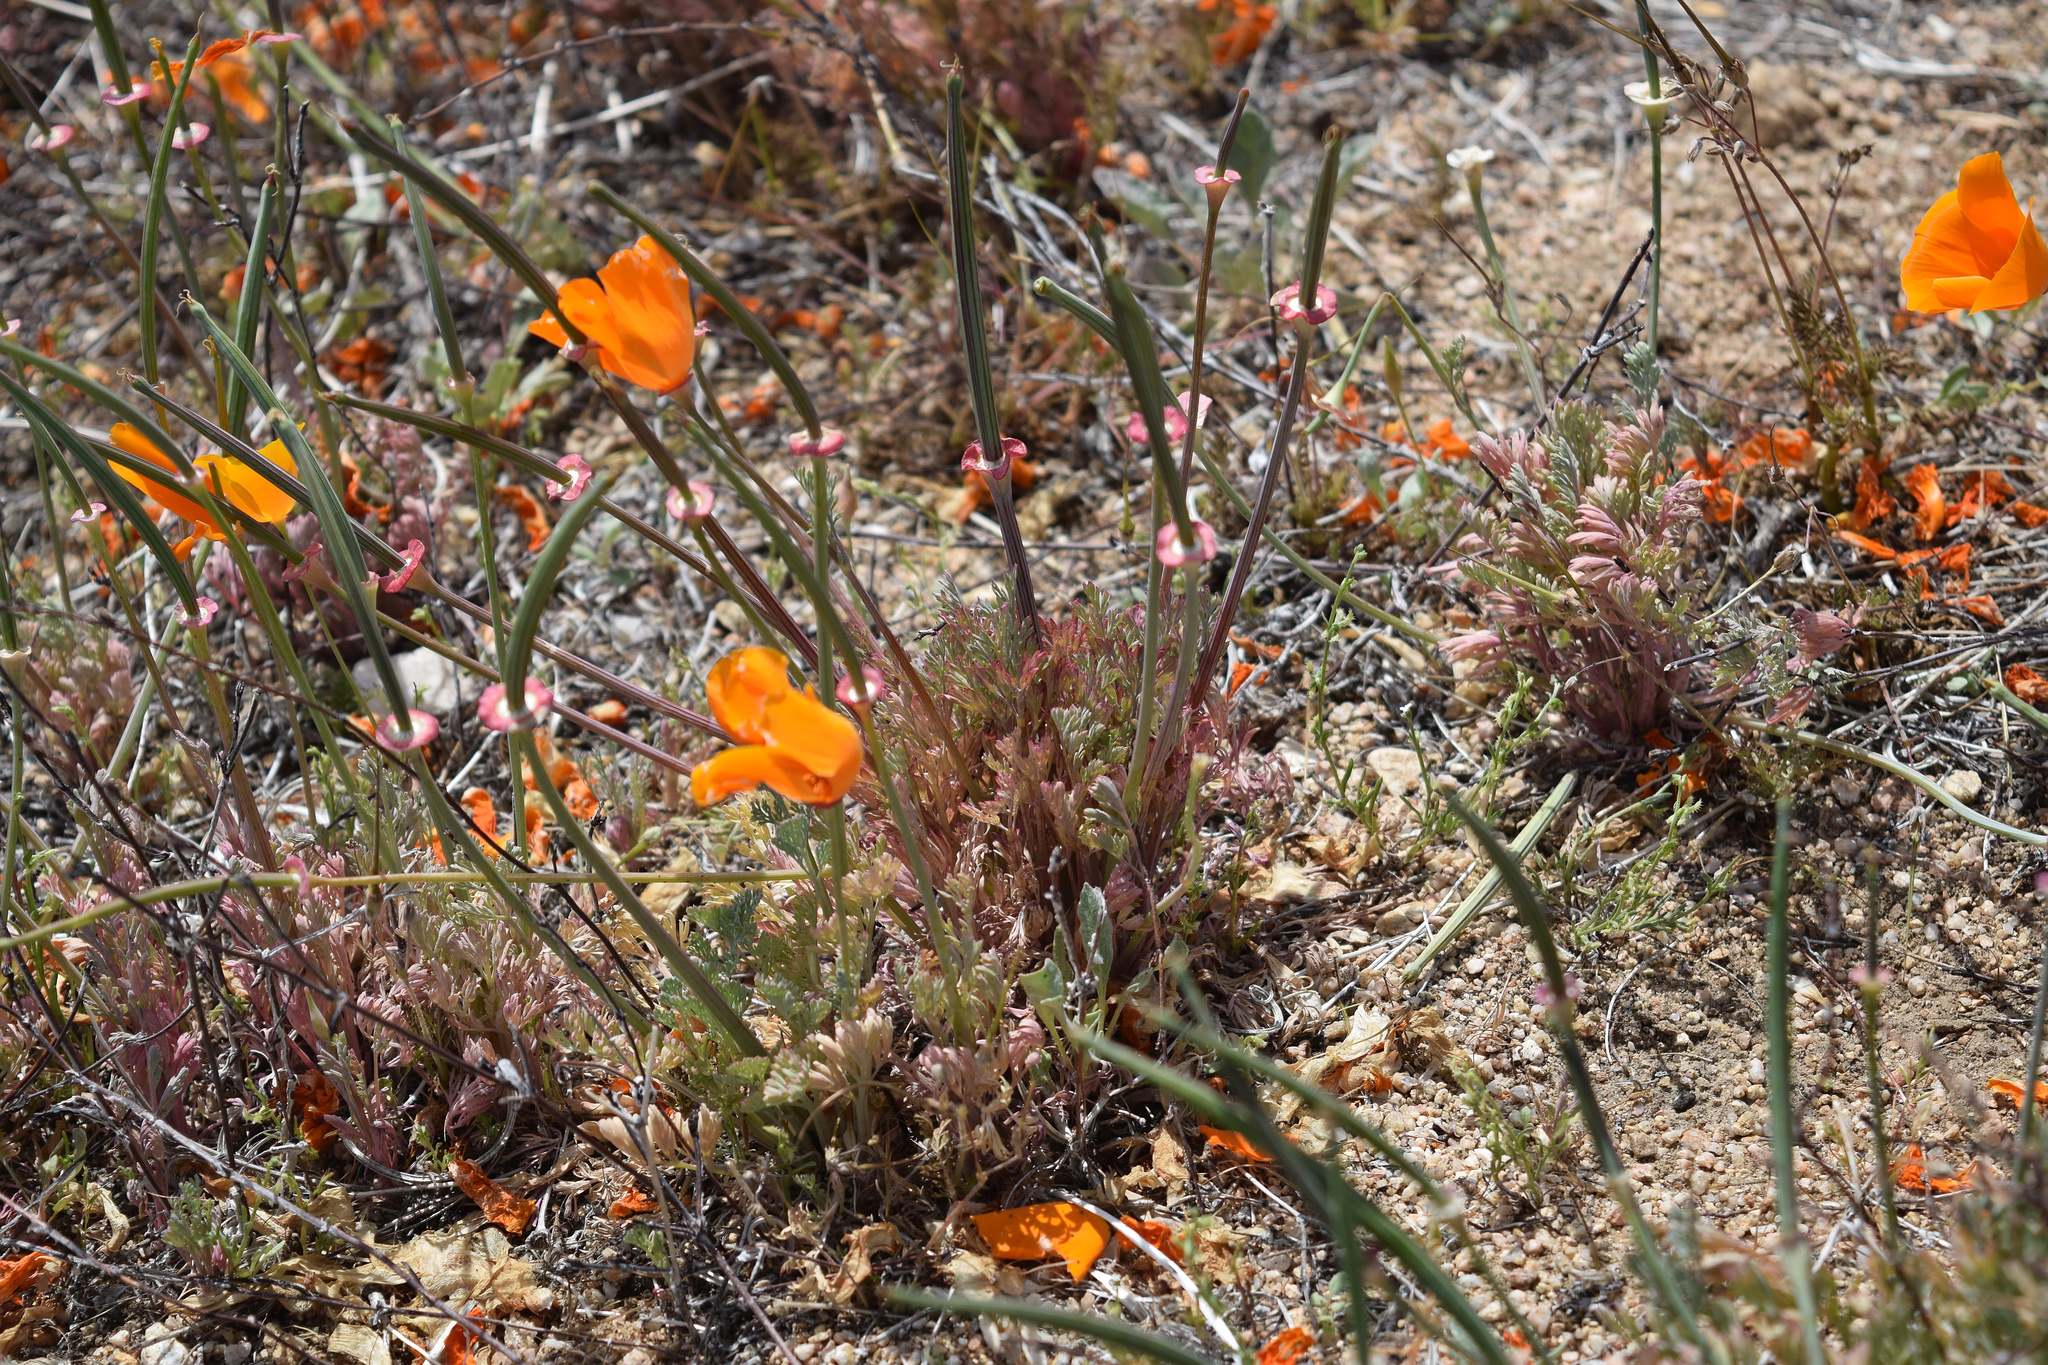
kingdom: Plantae
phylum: Tracheophyta
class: Magnoliopsida
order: Ranunculales
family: Papaveraceae
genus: Eschscholzia
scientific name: Eschscholzia californica
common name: California poppy
